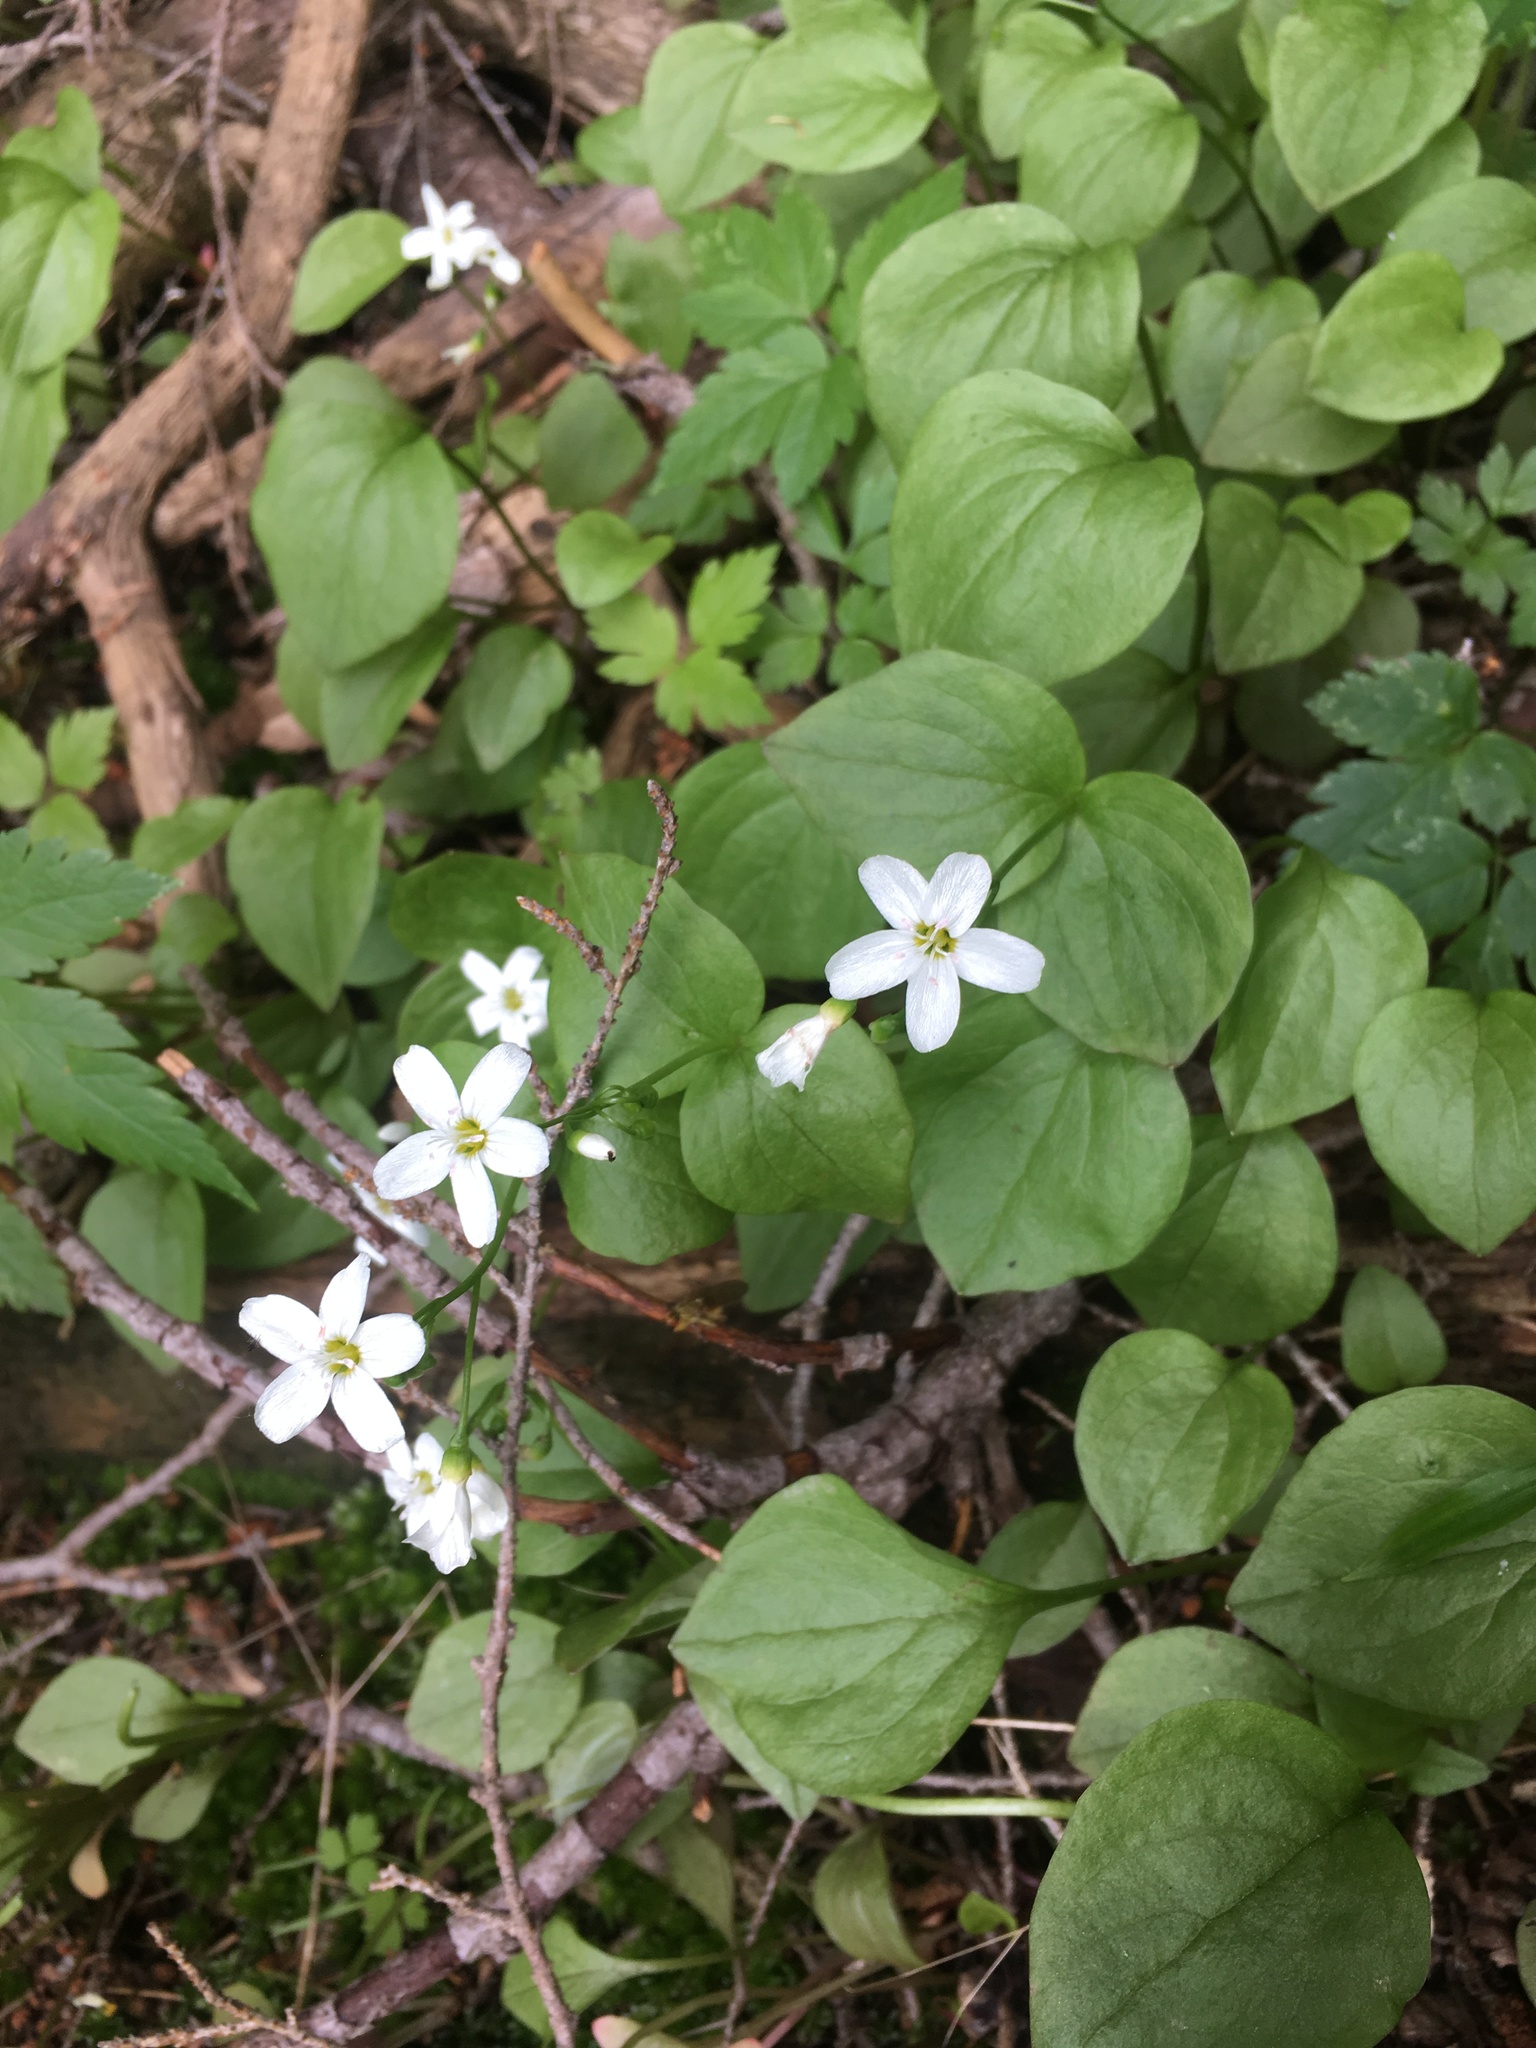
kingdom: Plantae
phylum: Tracheophyta
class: Magnoliopsida
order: Caryophyllales
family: Montiaceae
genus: Claytonia
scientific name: Claytonia cordifolia
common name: Broad-leaved spring beauty
